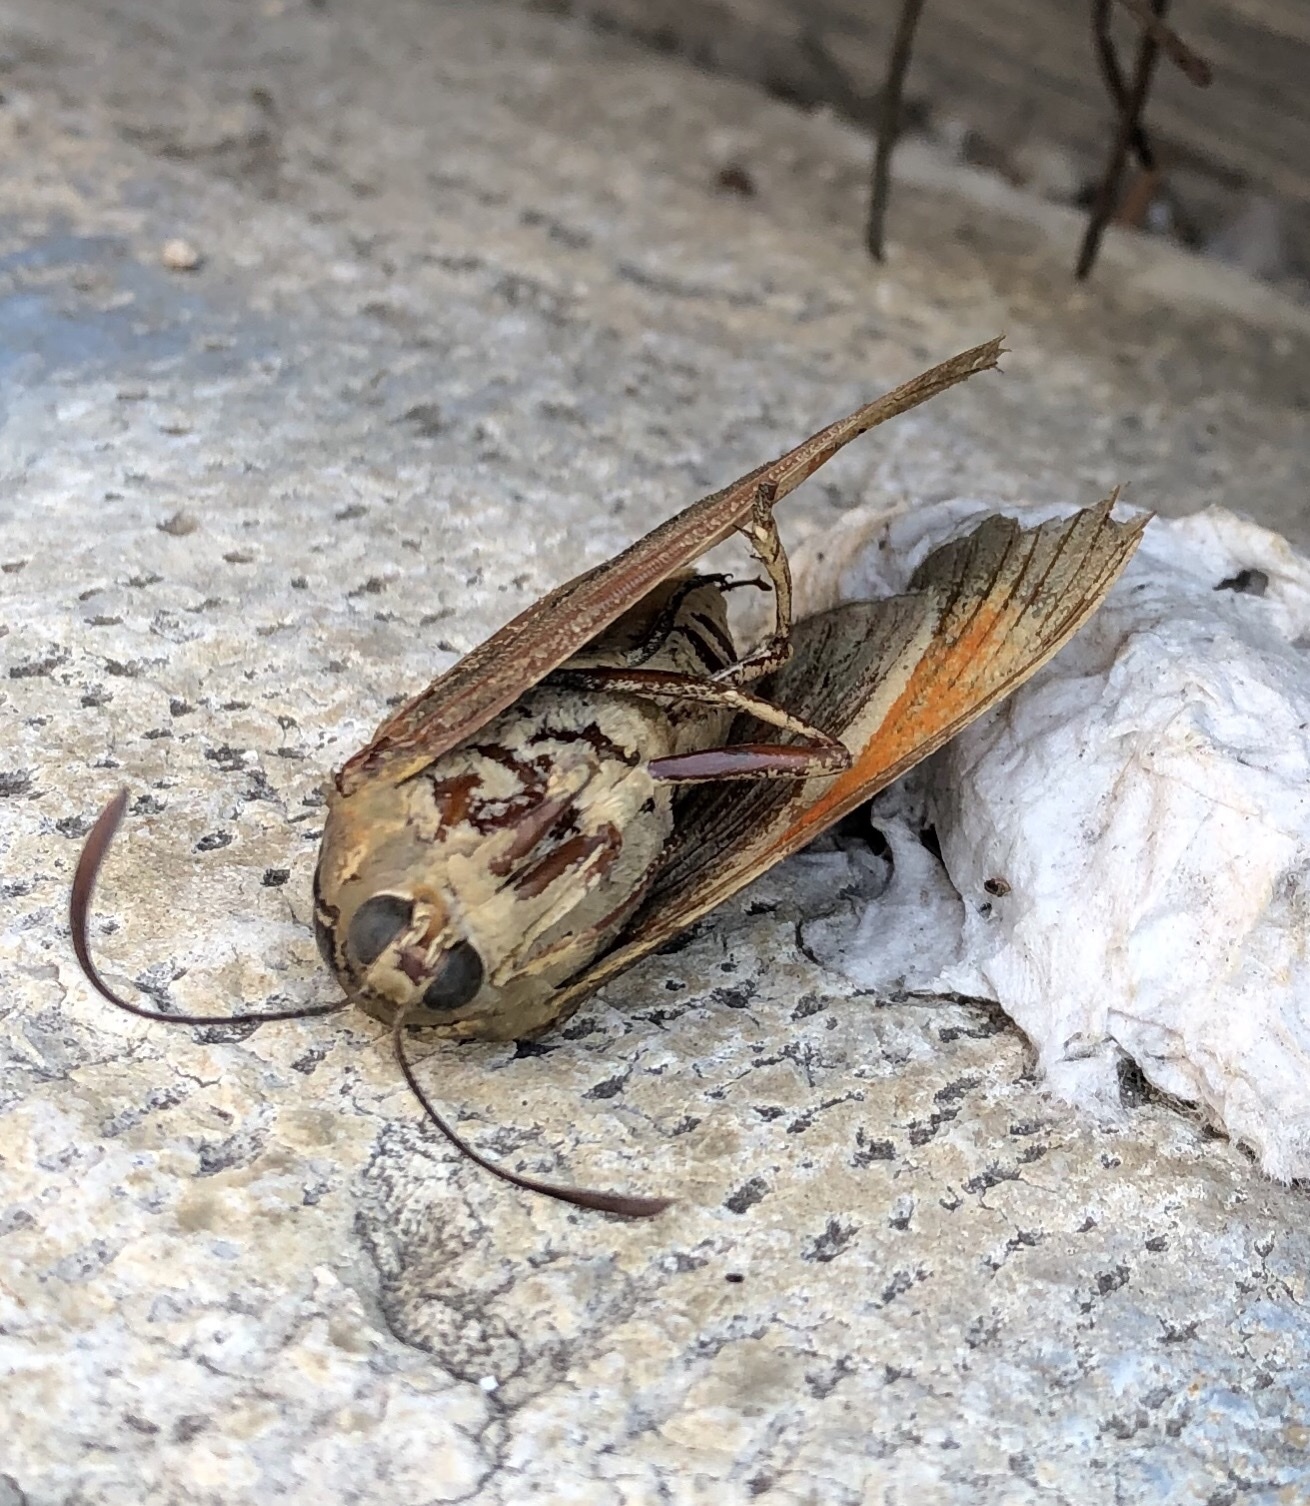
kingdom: Animalia
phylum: Arthropoda
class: Insecta
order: Lepidoptera
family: Castniidae
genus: Paysandisia
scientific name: Paysandisia archon
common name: Palm moth
